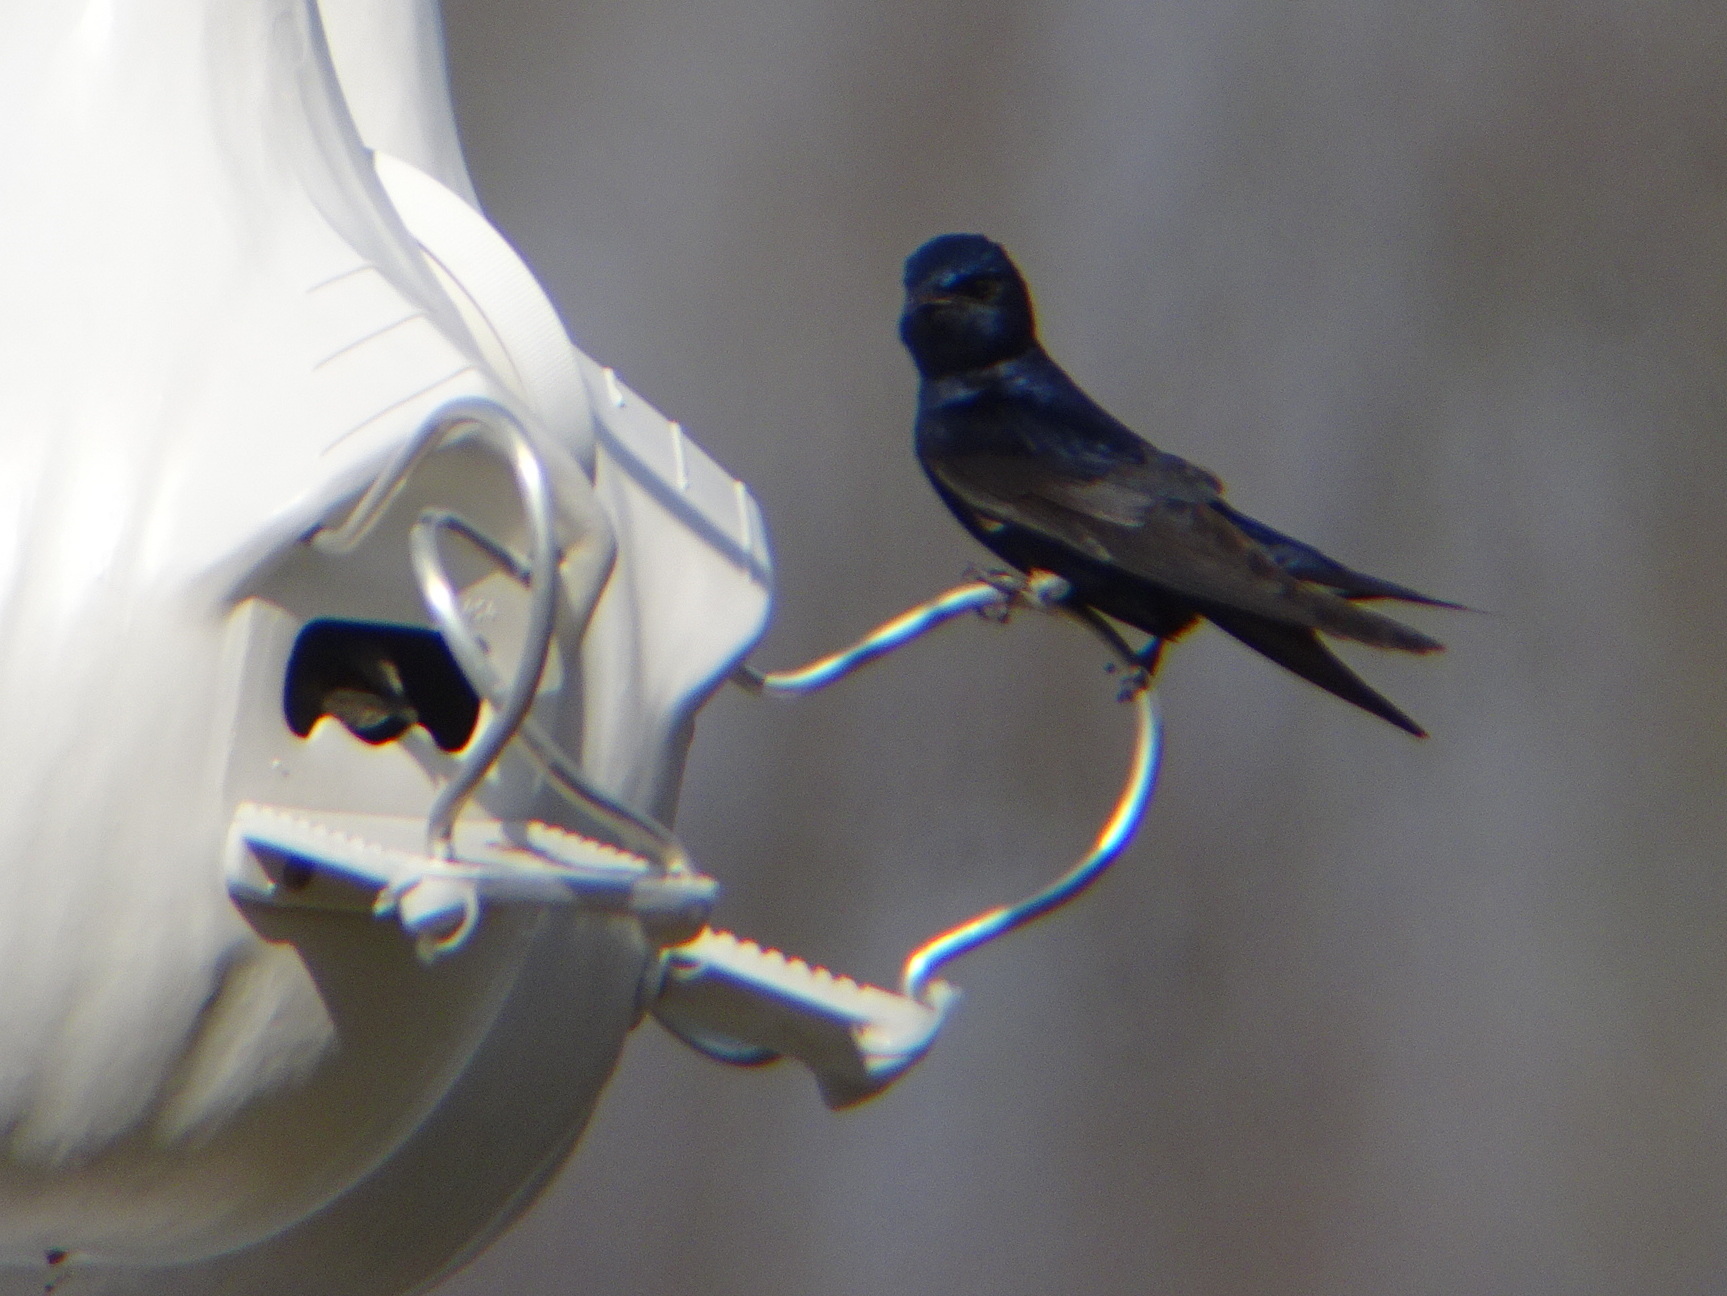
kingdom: Animalia
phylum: Chordata
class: Aves
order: Passeriformes
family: Hirundinidae
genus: Progne
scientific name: Progne subis
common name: Purple martin
